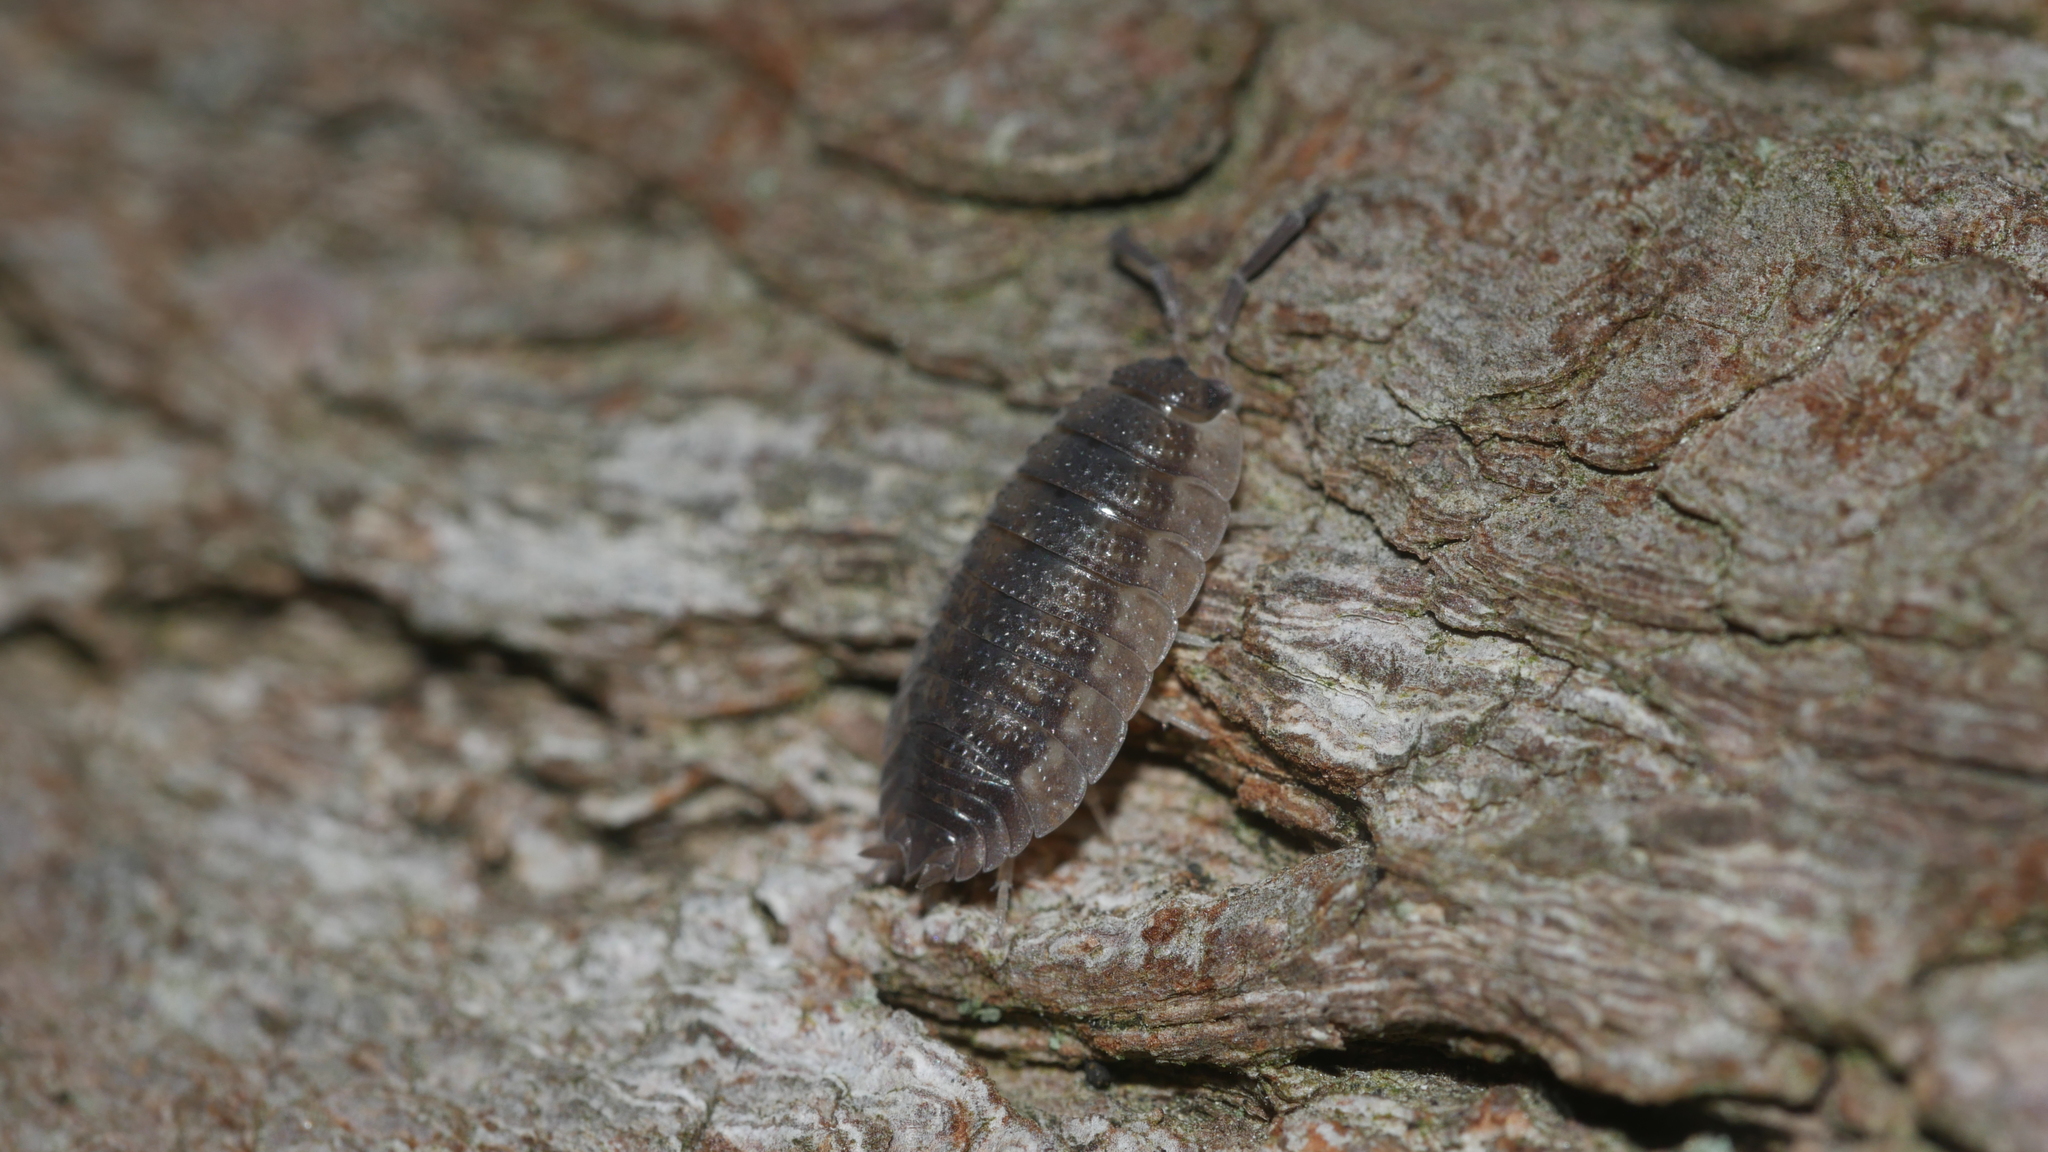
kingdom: Animalia
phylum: Arthropoda
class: Malacostraca
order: Isopoda
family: Porcellionidae
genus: Porcellio
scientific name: Porcellio scaber
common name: Common rough woodlouse
